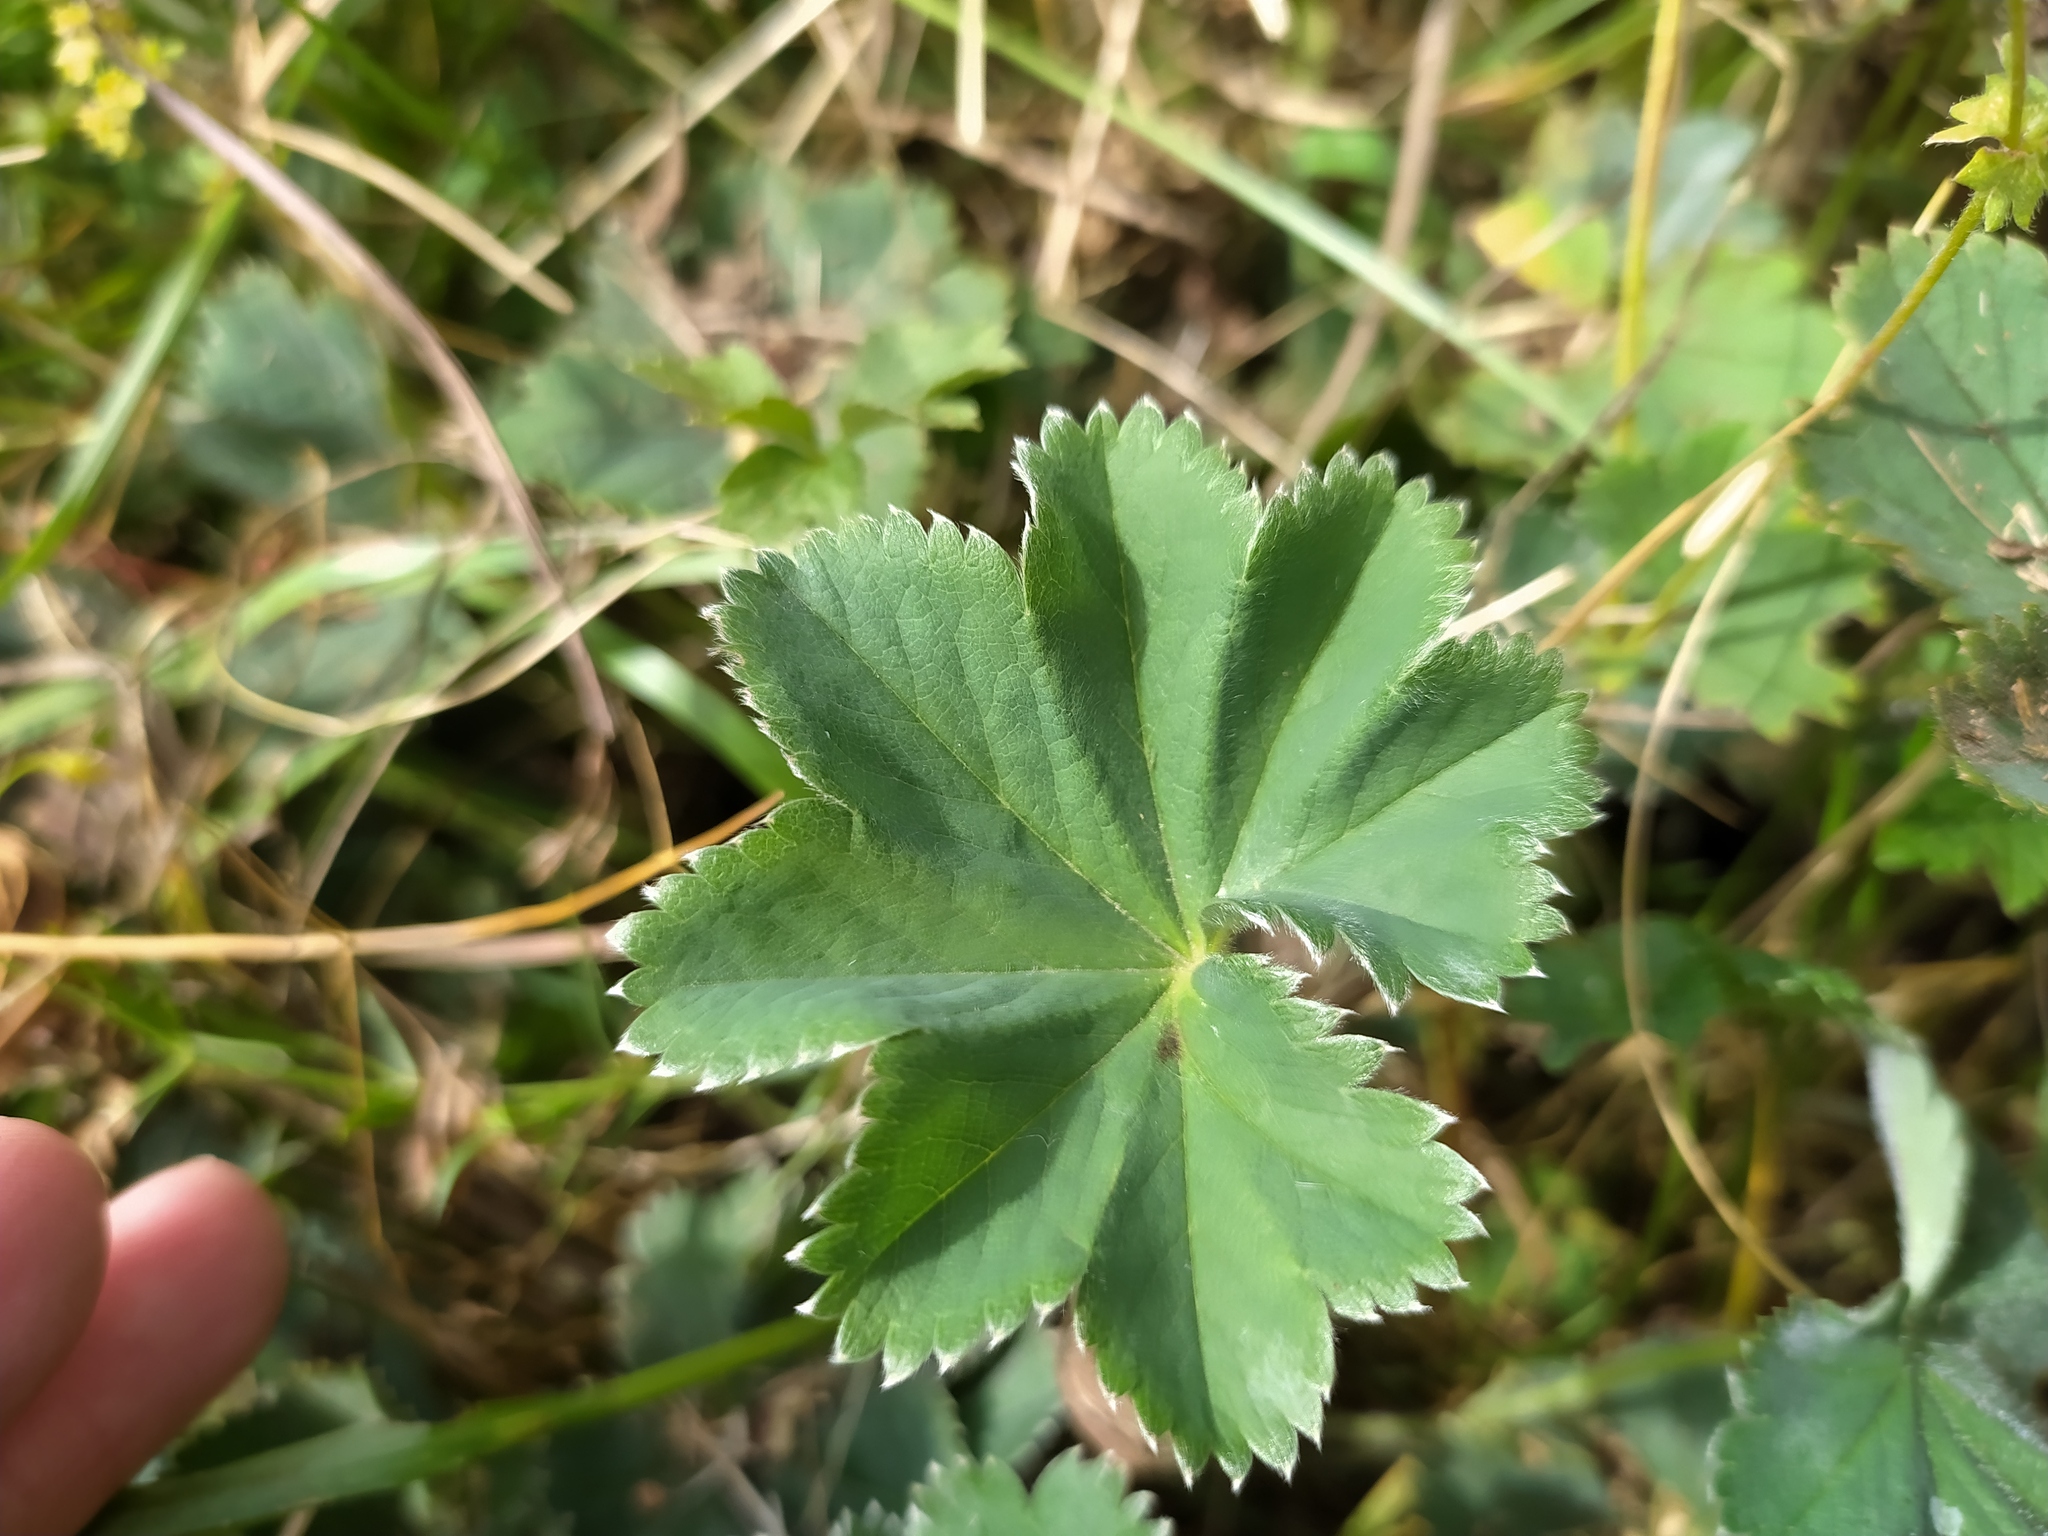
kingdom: Plantae
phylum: Tracheophyta
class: Magnoliopsida
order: Rosales
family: Rosaceae
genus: Alchemilla
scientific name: Alchemilla glaucescens
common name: Silky lady's mantle
